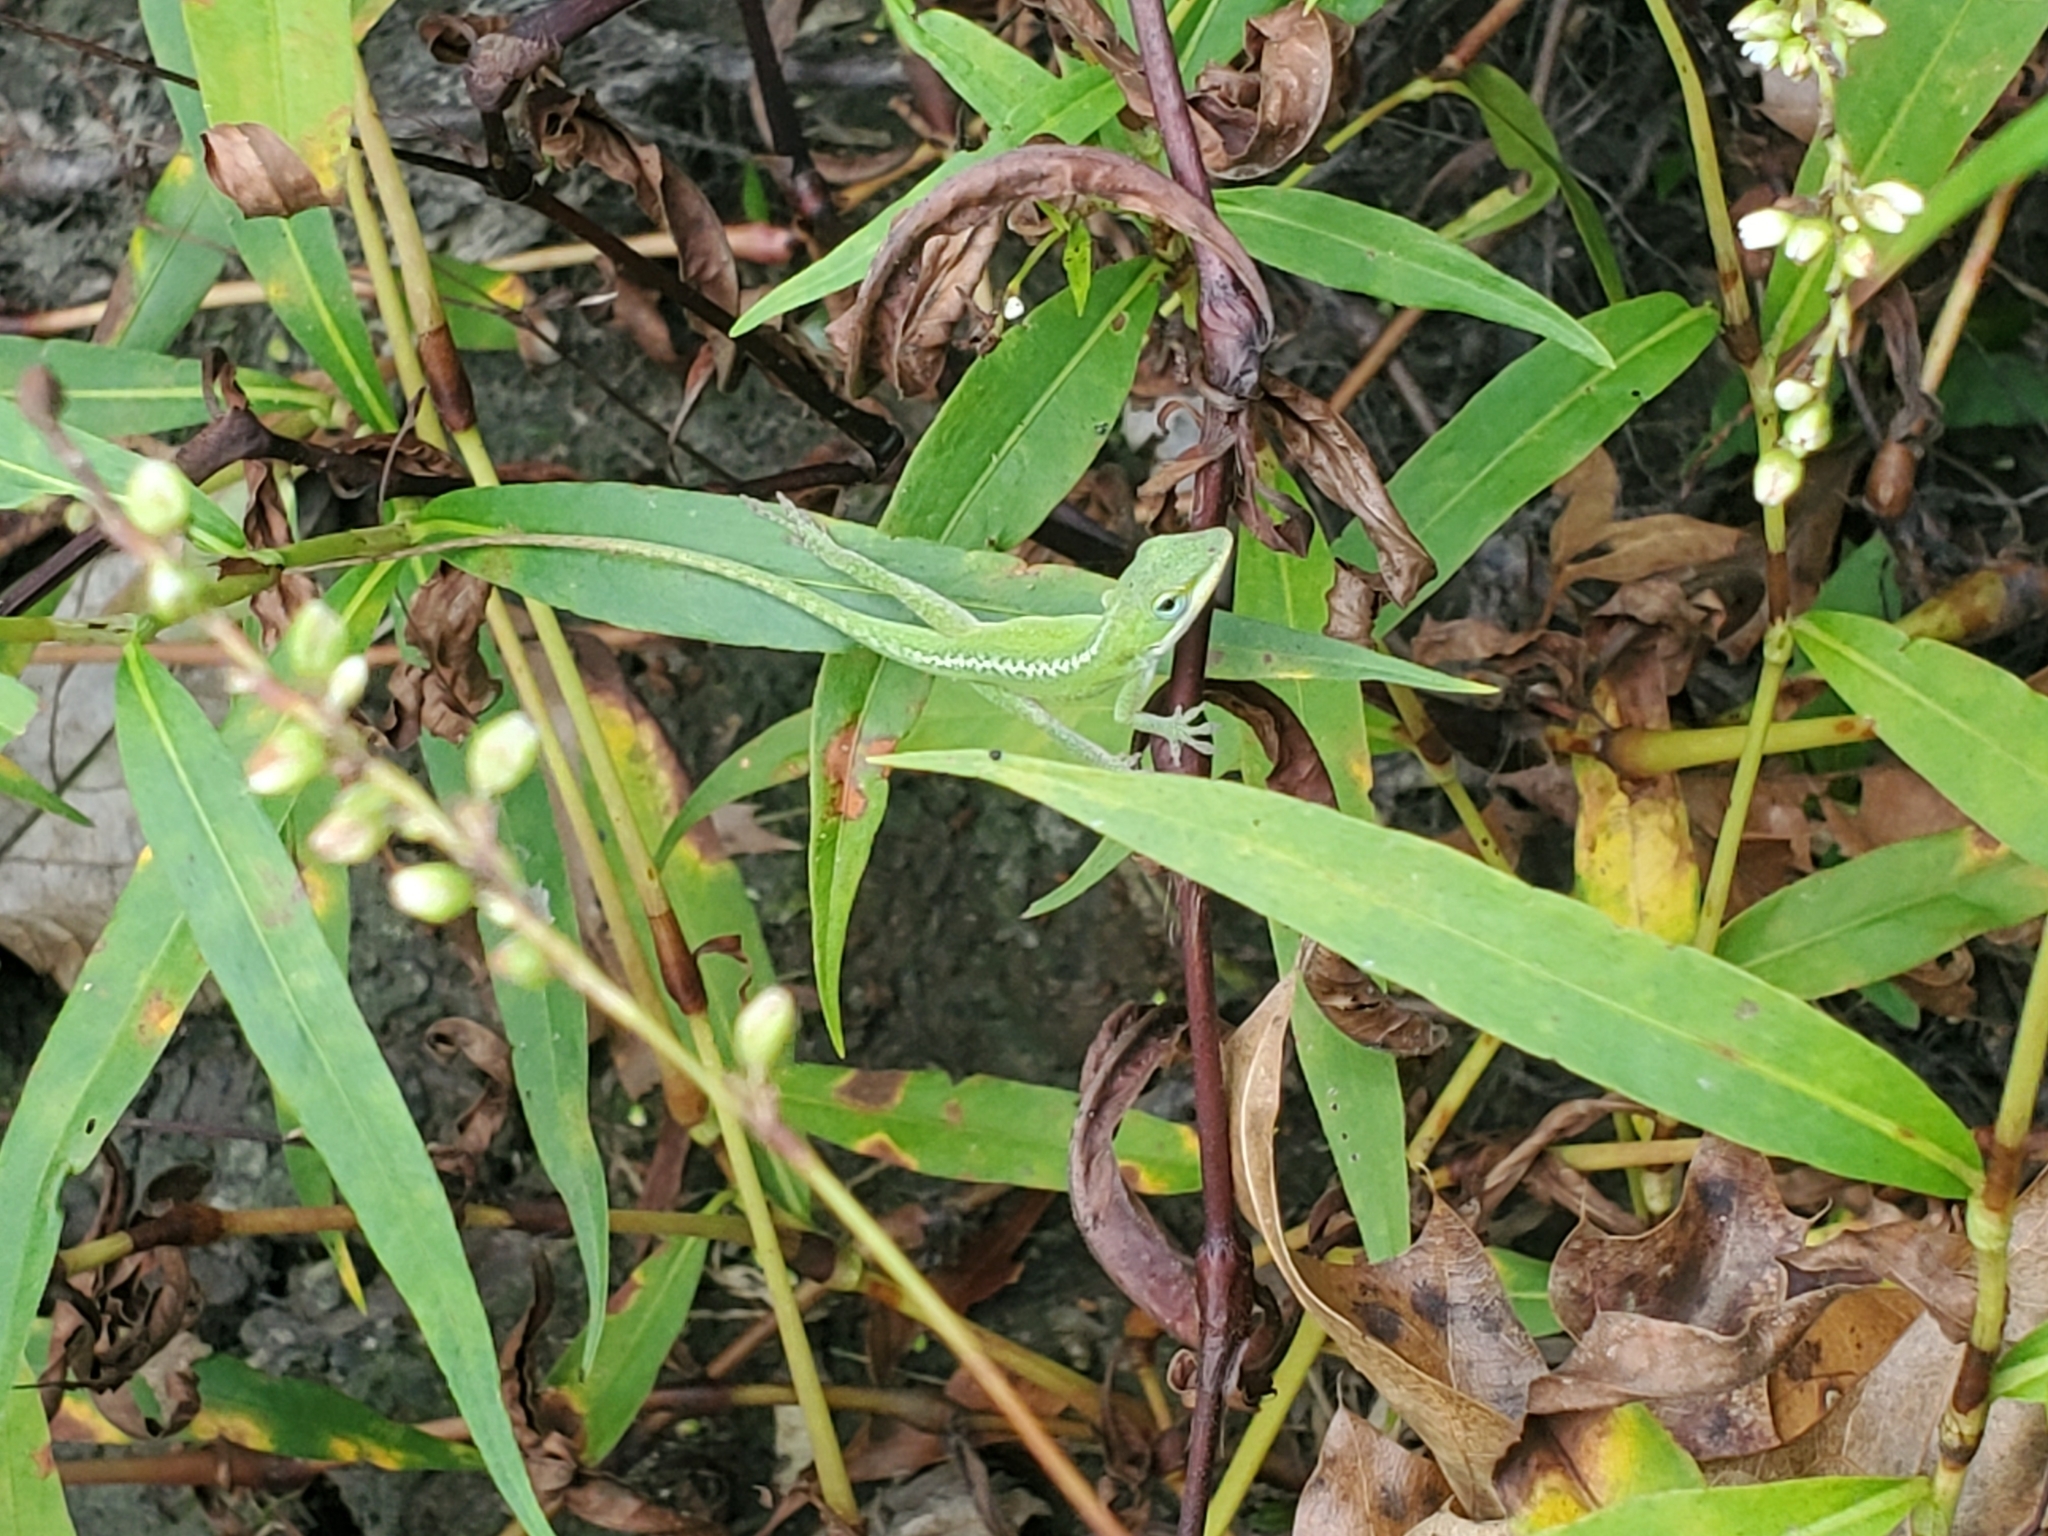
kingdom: Animalia
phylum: Chordata
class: Squamata
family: Dactyloidae
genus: Anolis
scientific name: Anolis carolinensis
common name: Green anole
